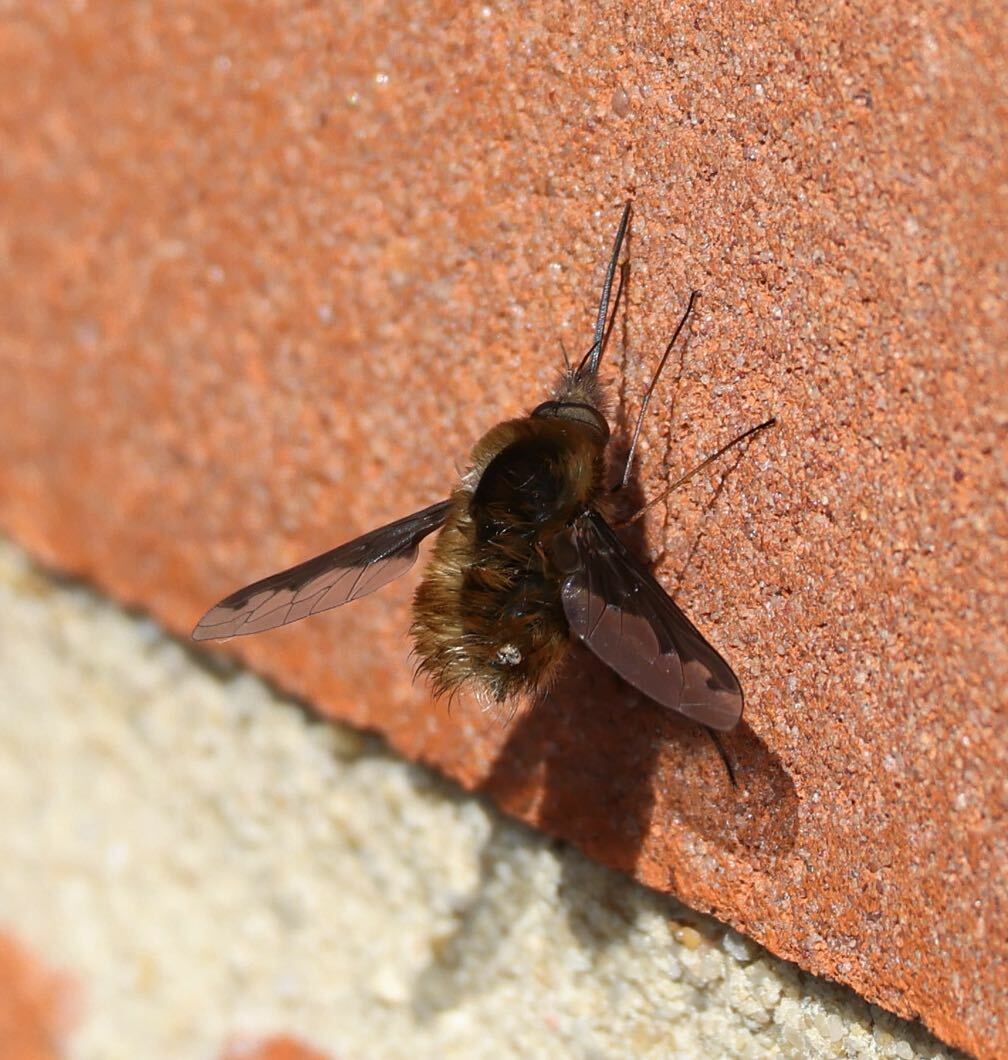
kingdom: Animalia
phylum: Arthropoda
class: Insecta
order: Diptera
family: Bombyliidae
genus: Bombylius
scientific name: Bombylius major
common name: Bee fly
